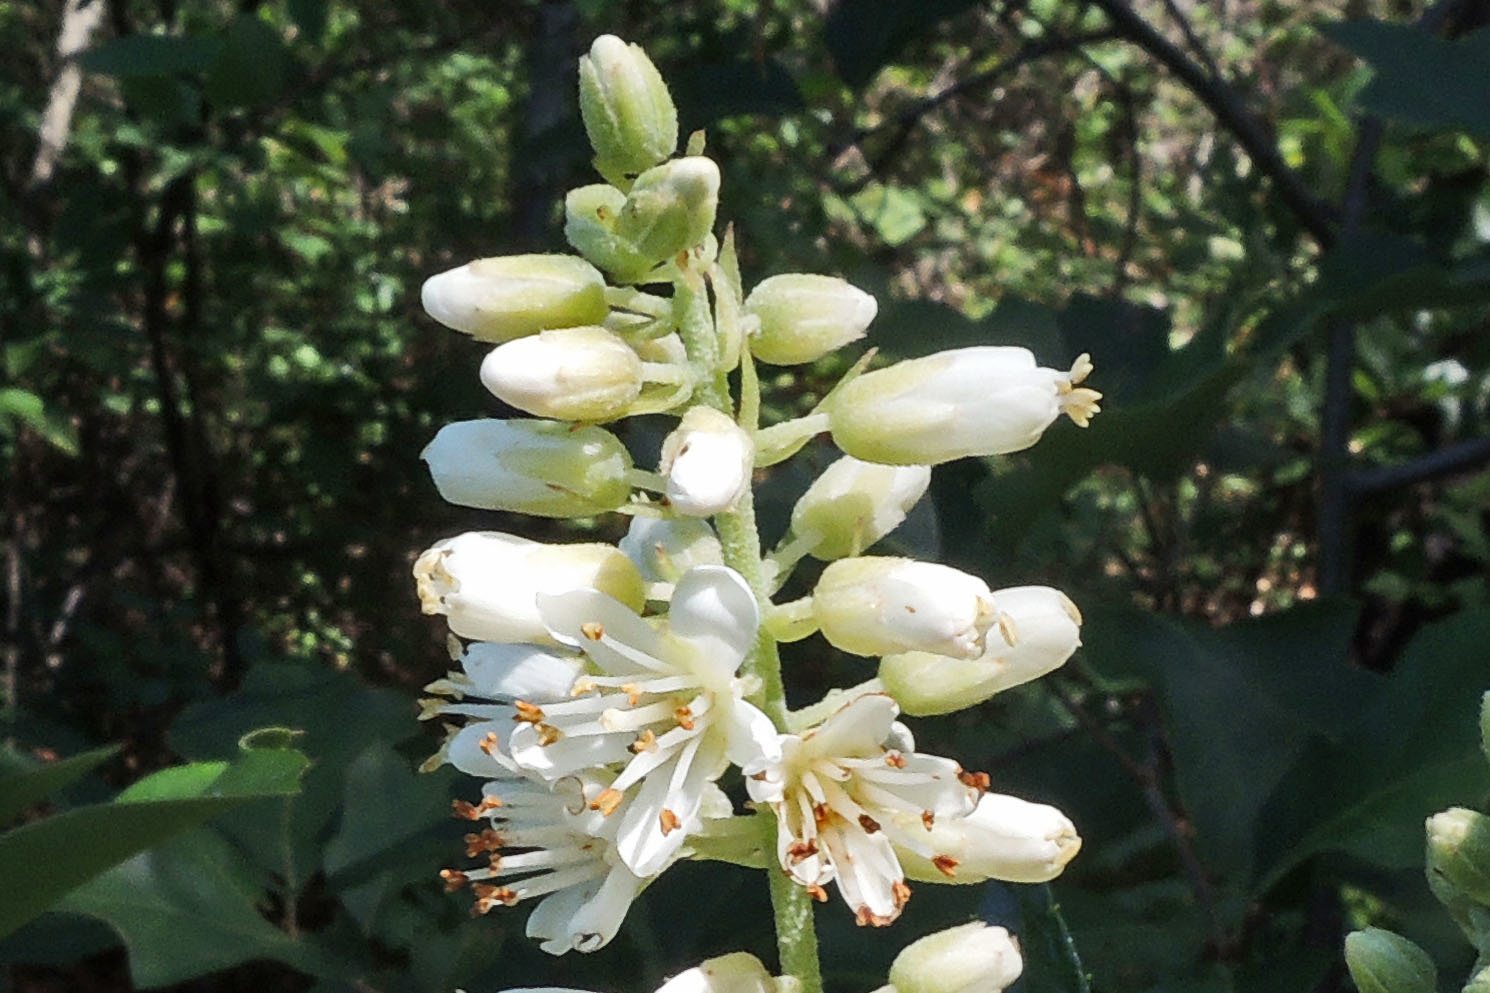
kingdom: Plantae
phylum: Tracheophyta
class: Magnoliopsida
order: Ericales
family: Clethraceae
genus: Clethra
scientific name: Clethra alnifolia
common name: Sweet pepperbush
